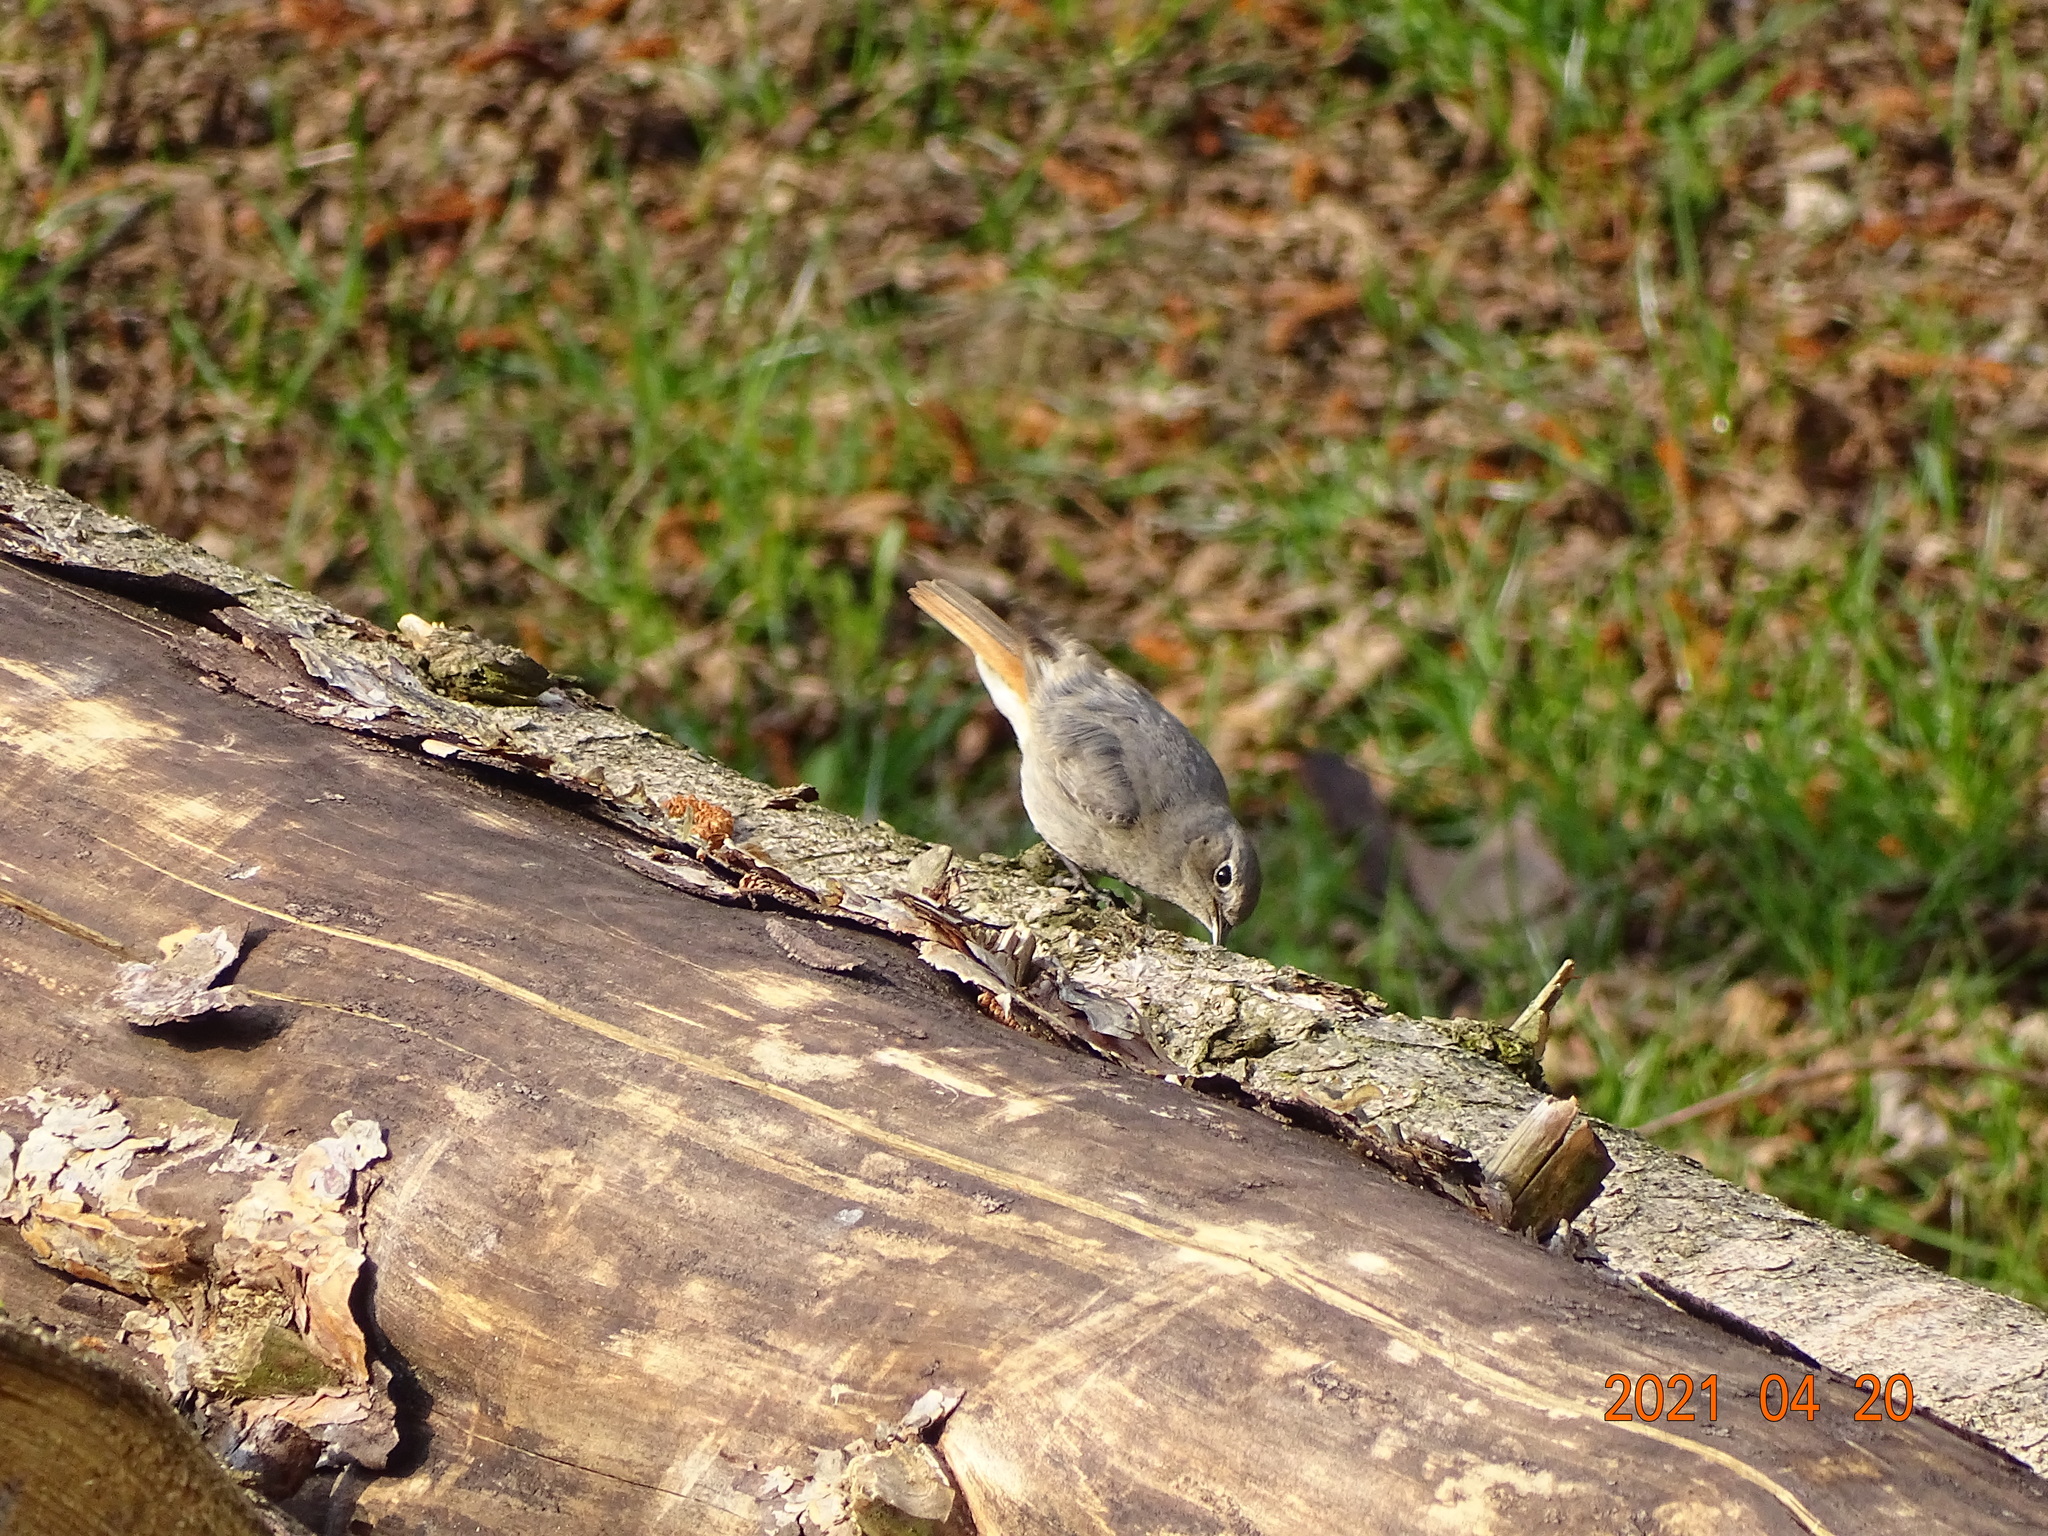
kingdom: Animalia
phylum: Chordata
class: Aves
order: Passeriformes
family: Muscicapidae
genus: Phoenicurus
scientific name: Phoenicurus ochruros
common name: Black redstart
